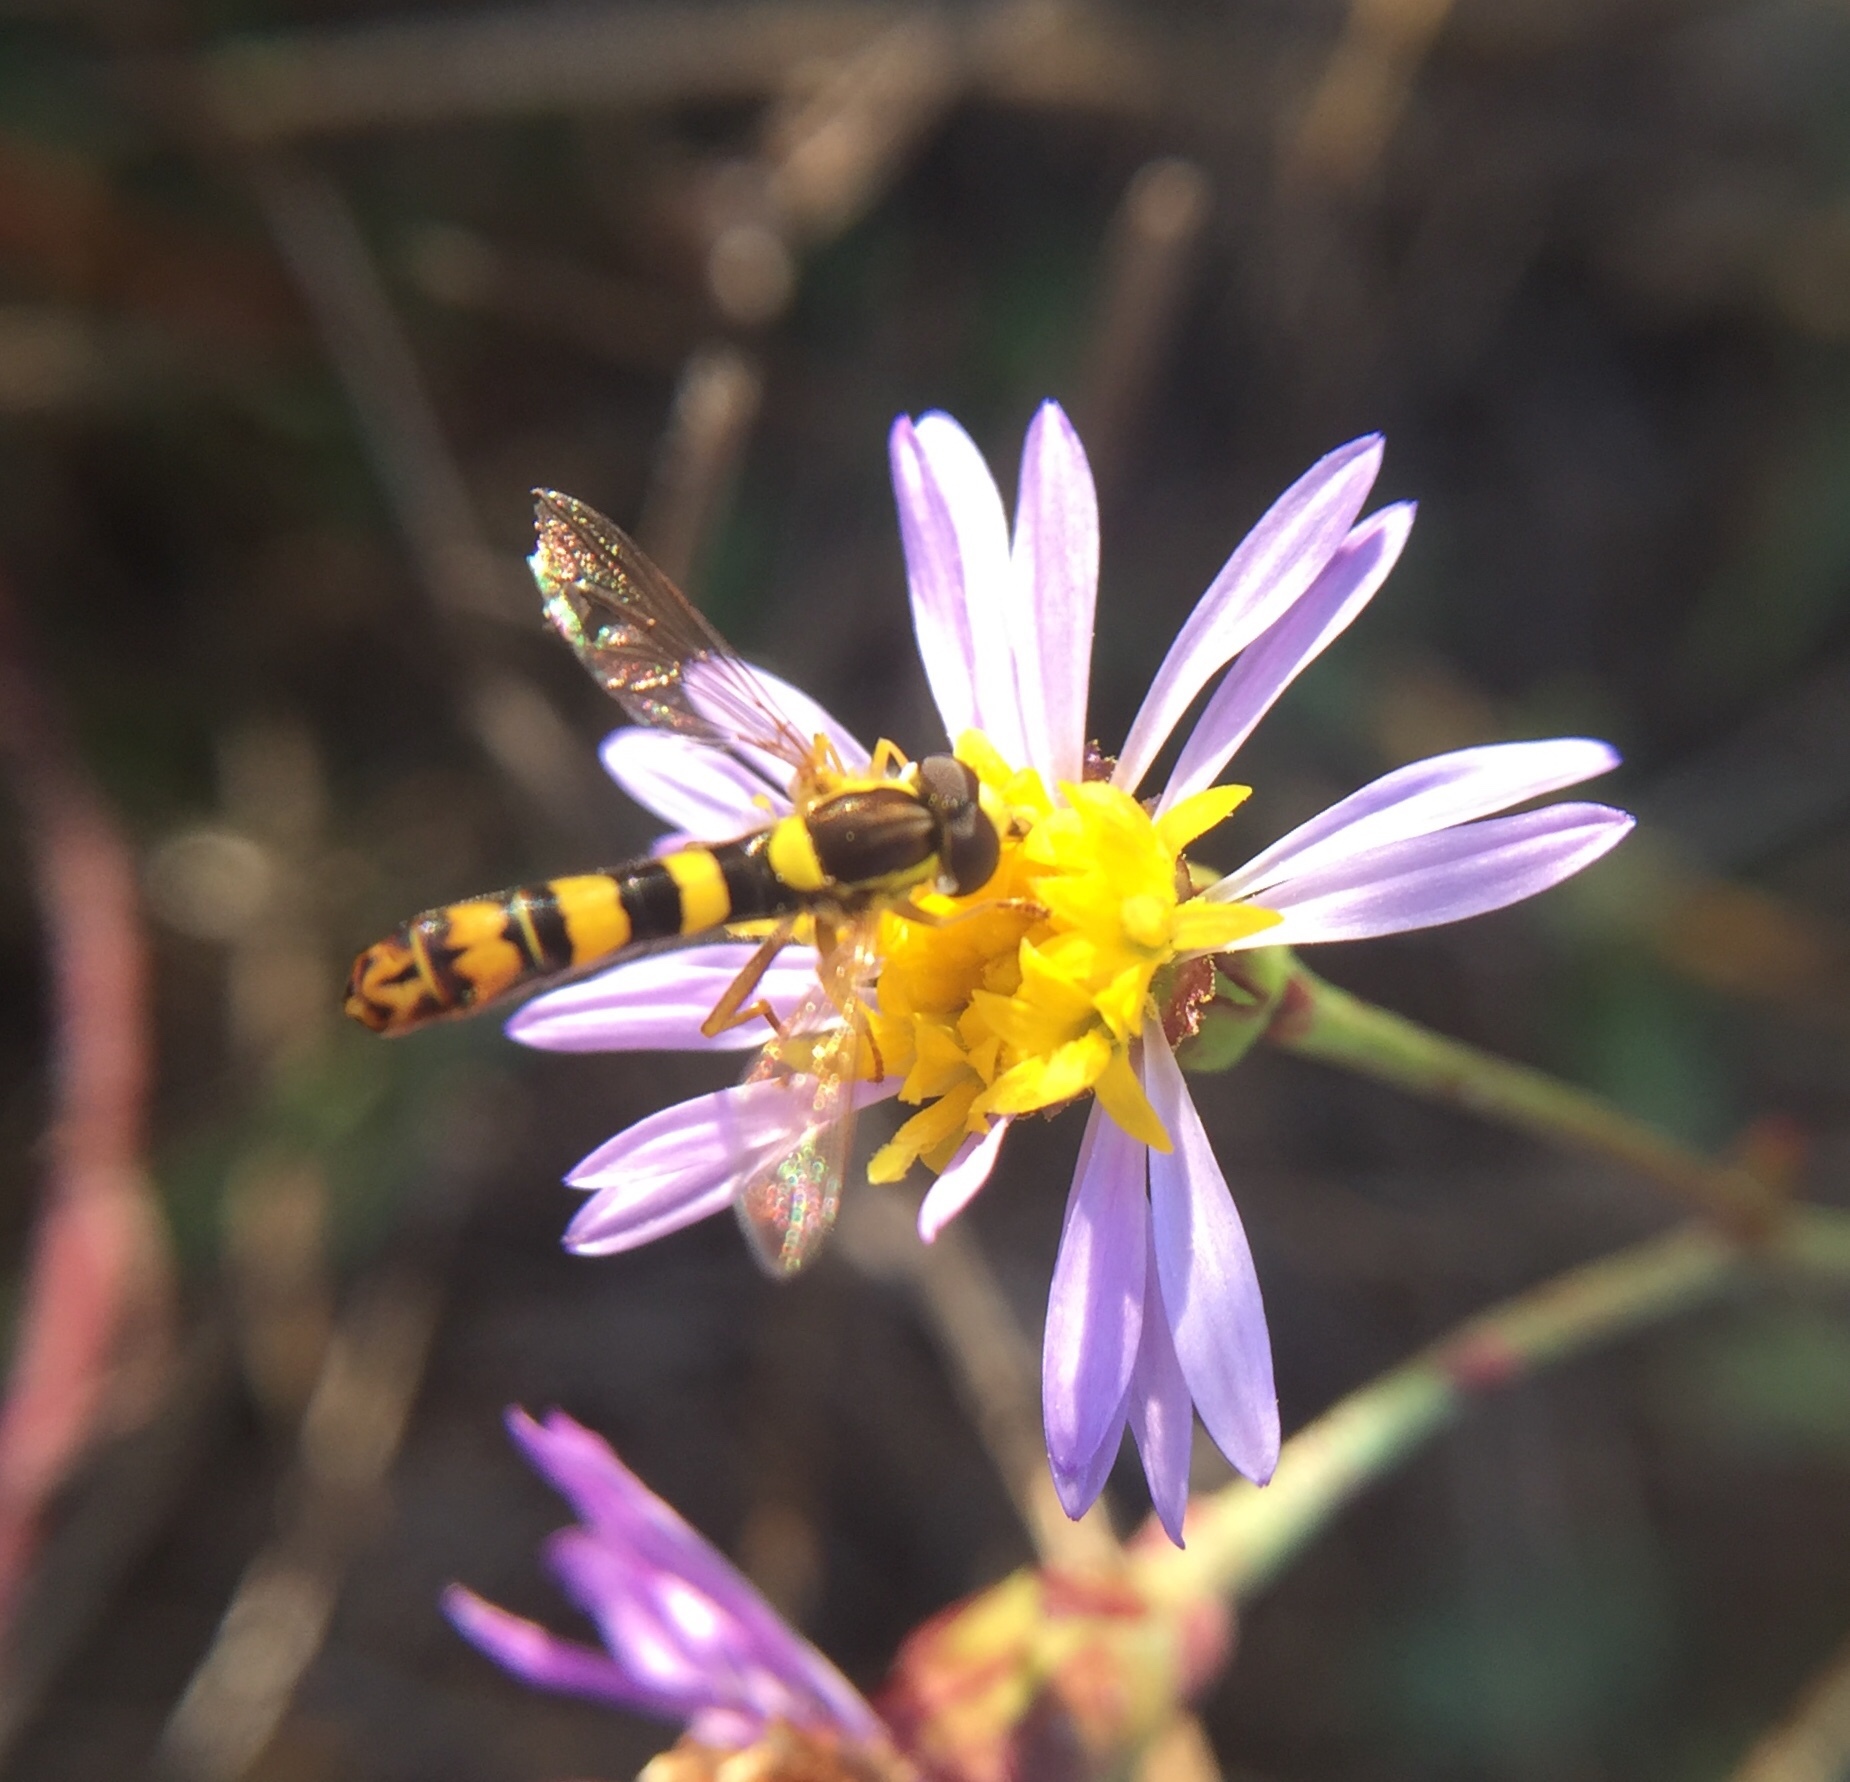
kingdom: Animalia
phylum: Arthropoda
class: Insecta
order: Diptera
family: Syrphidae
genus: Sphaerophoria
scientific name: Sphaerophoria scripta
